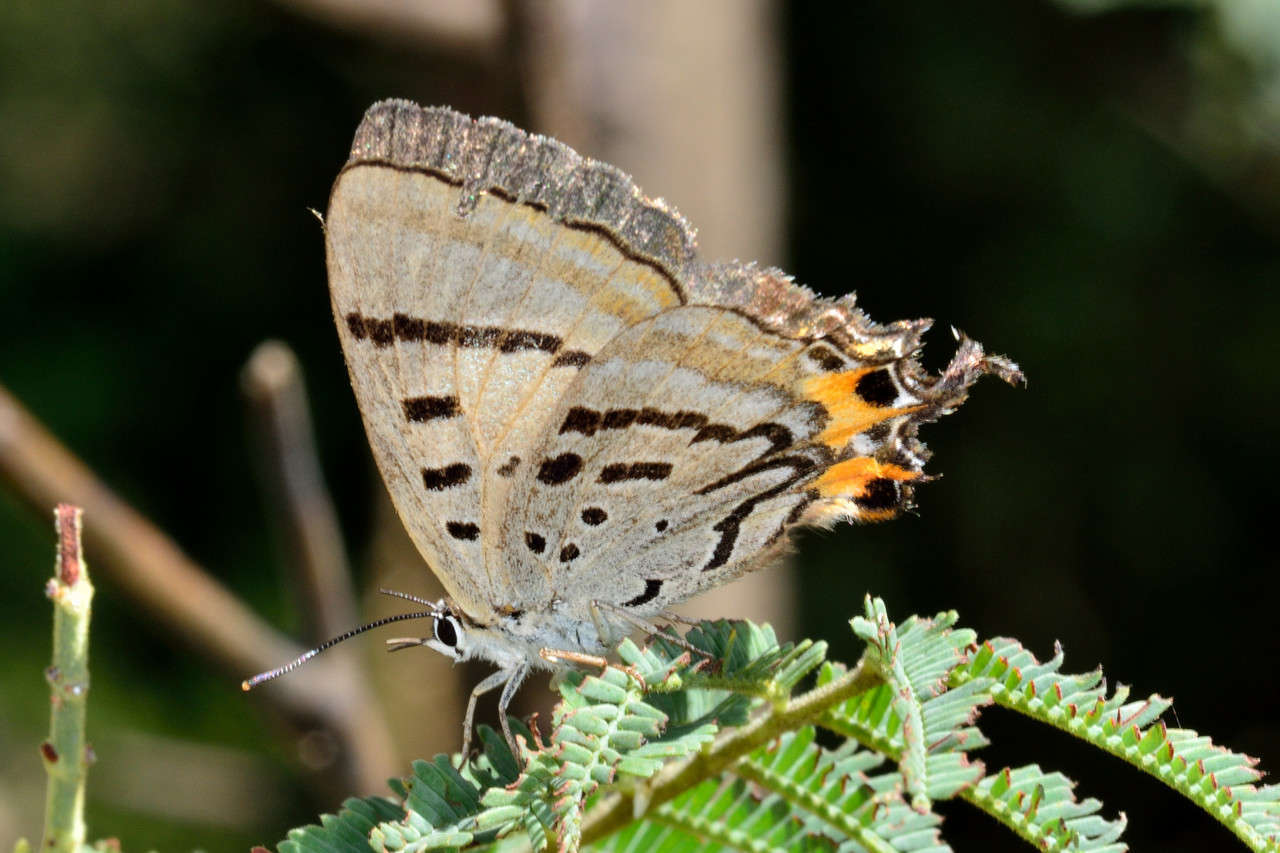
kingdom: Animalia
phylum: Arthropoda
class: Insecta
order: Lepidoptera
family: Lycaenidae
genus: Jalmenus
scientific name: Jalmenus evagoras
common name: Common imperial blue
